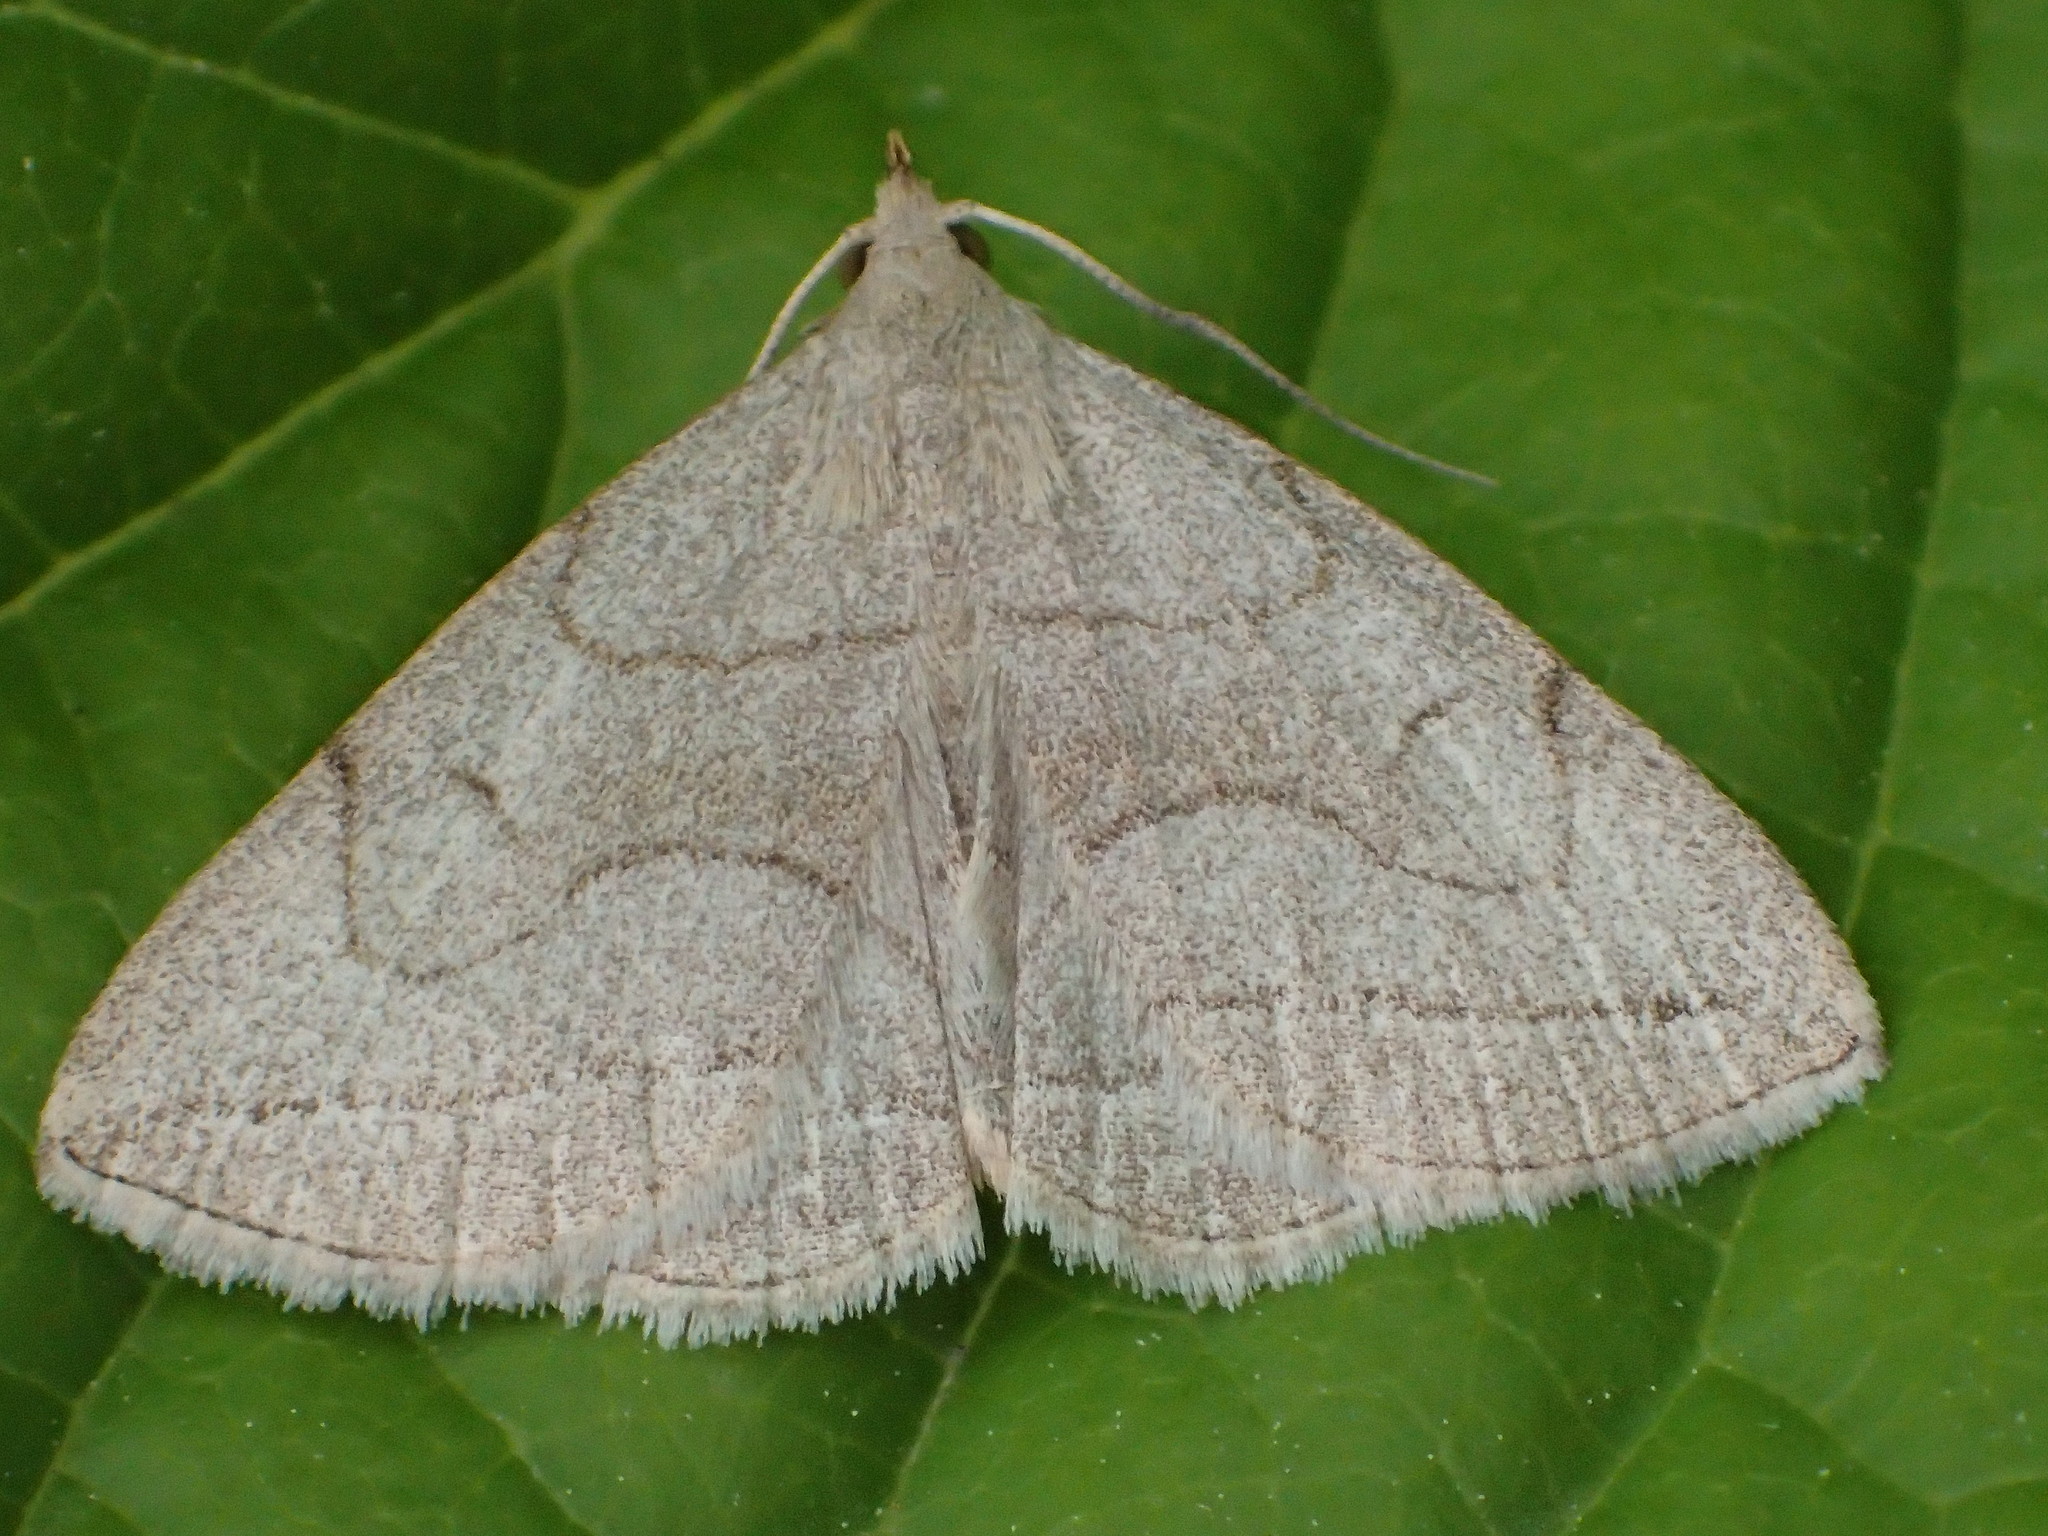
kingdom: Animalia
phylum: Arthropoda
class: Insecta
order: Lepidoptera
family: Erebidae
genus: Zanclognatha
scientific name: Zanclognatha pedipilalis
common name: Grayish fan-foot
